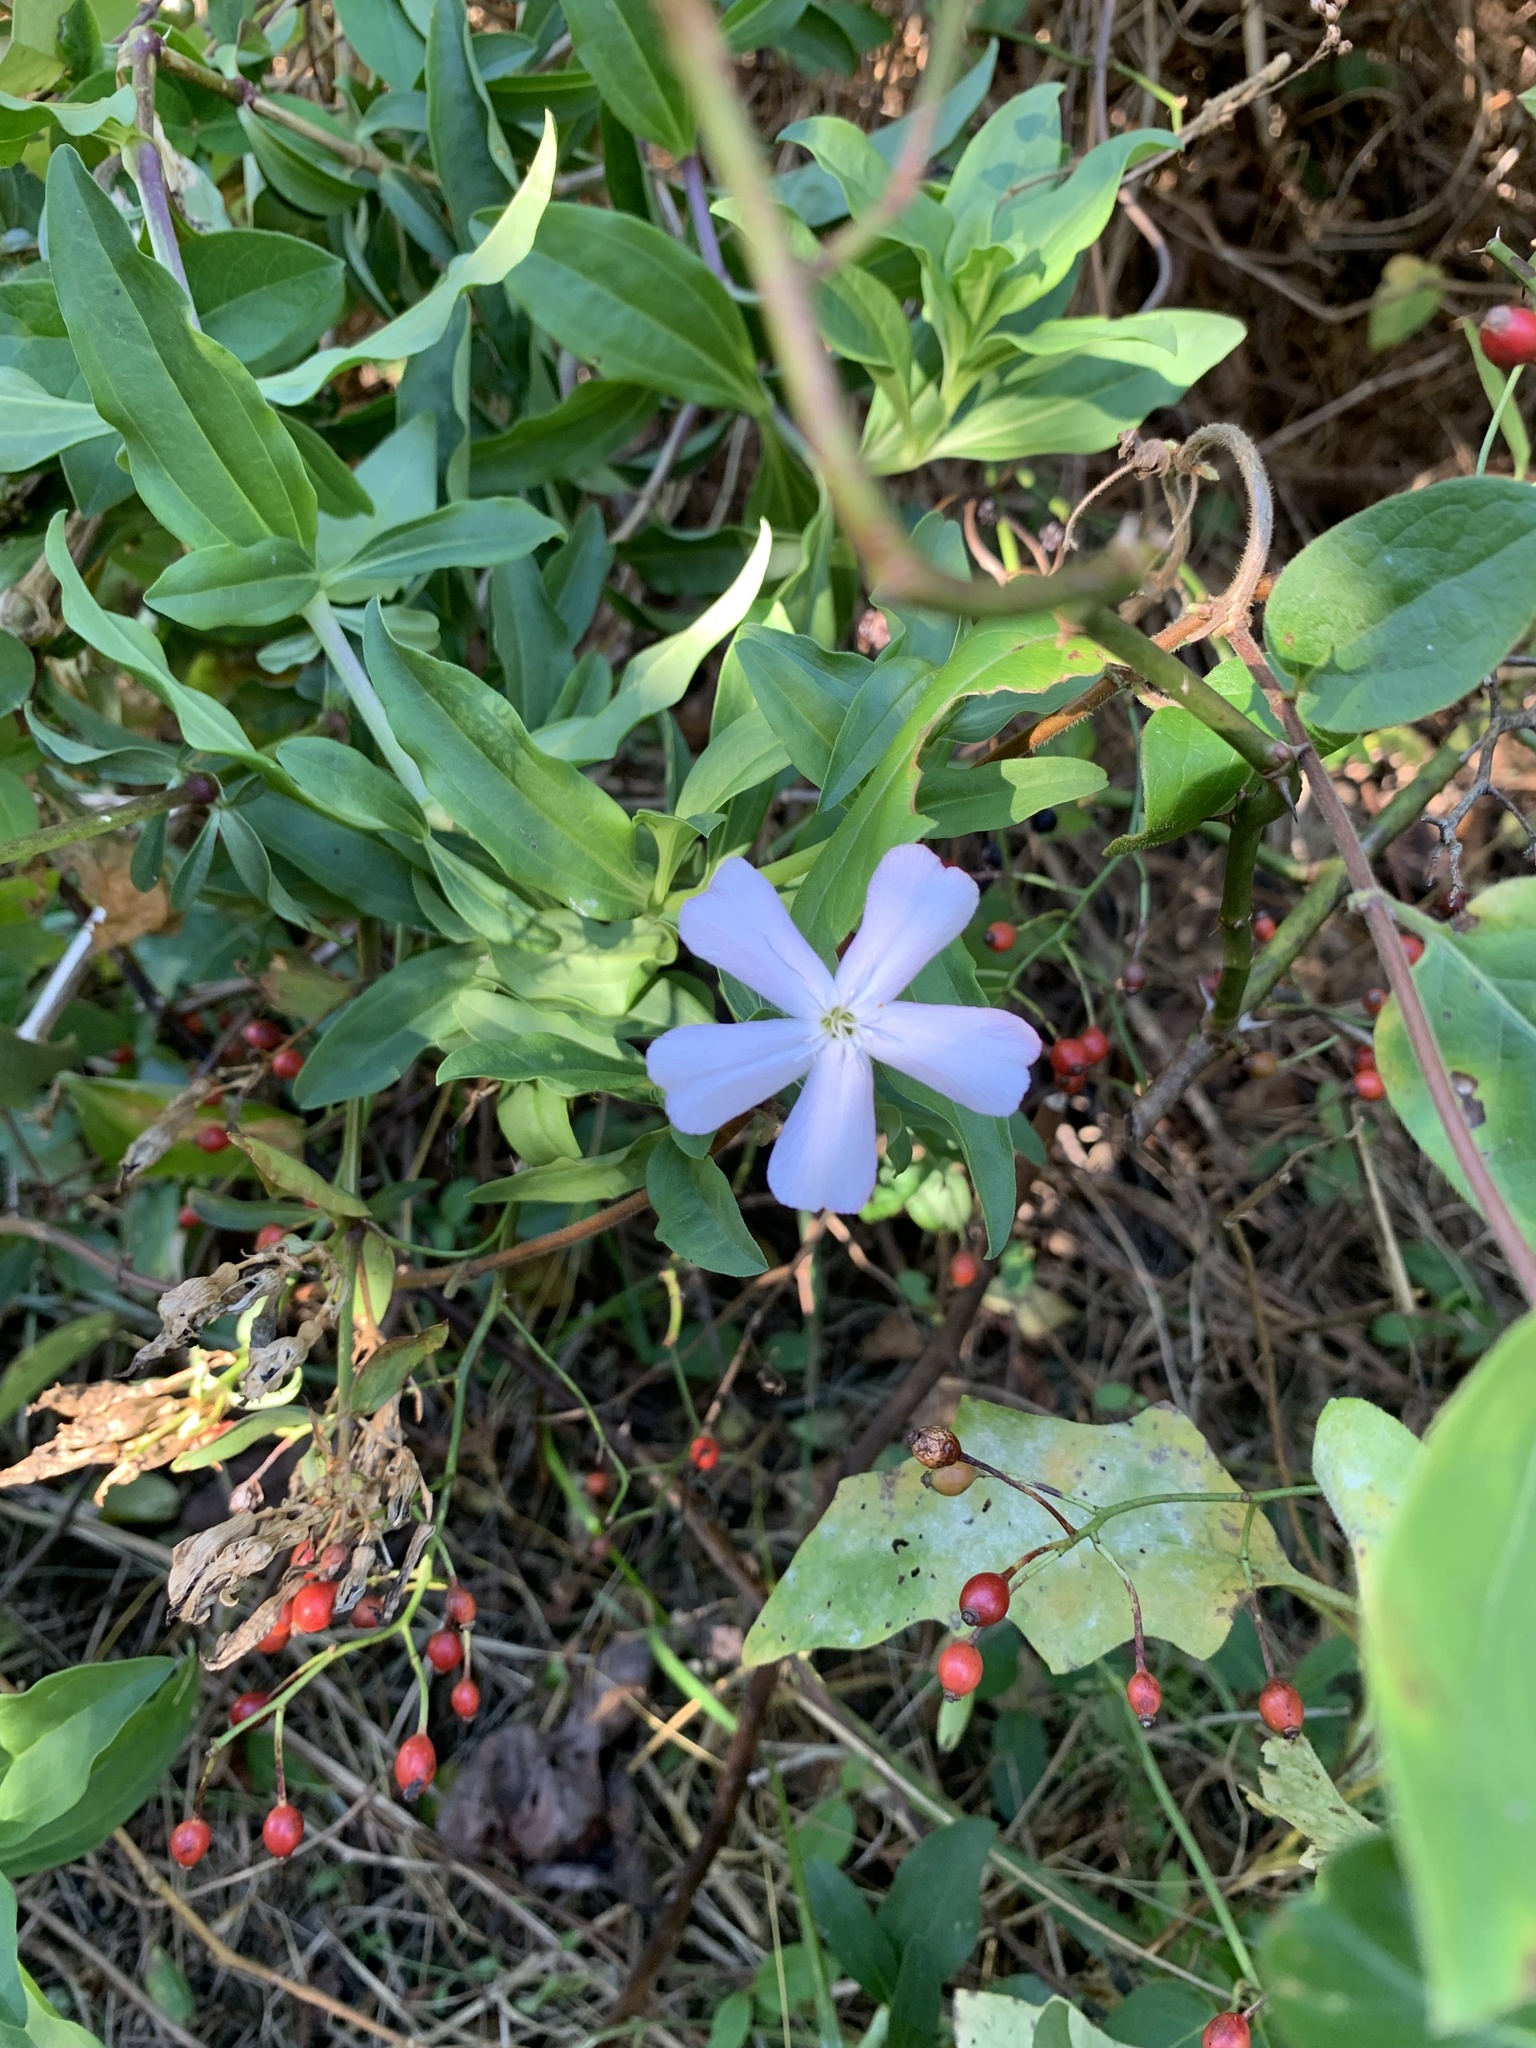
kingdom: Plantae
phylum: Tracheophyta
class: Magnoliopsida
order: Caryophyllales
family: Caryophyllaceae
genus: Saponaria
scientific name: Saponaria officinalis
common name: Soapwort
